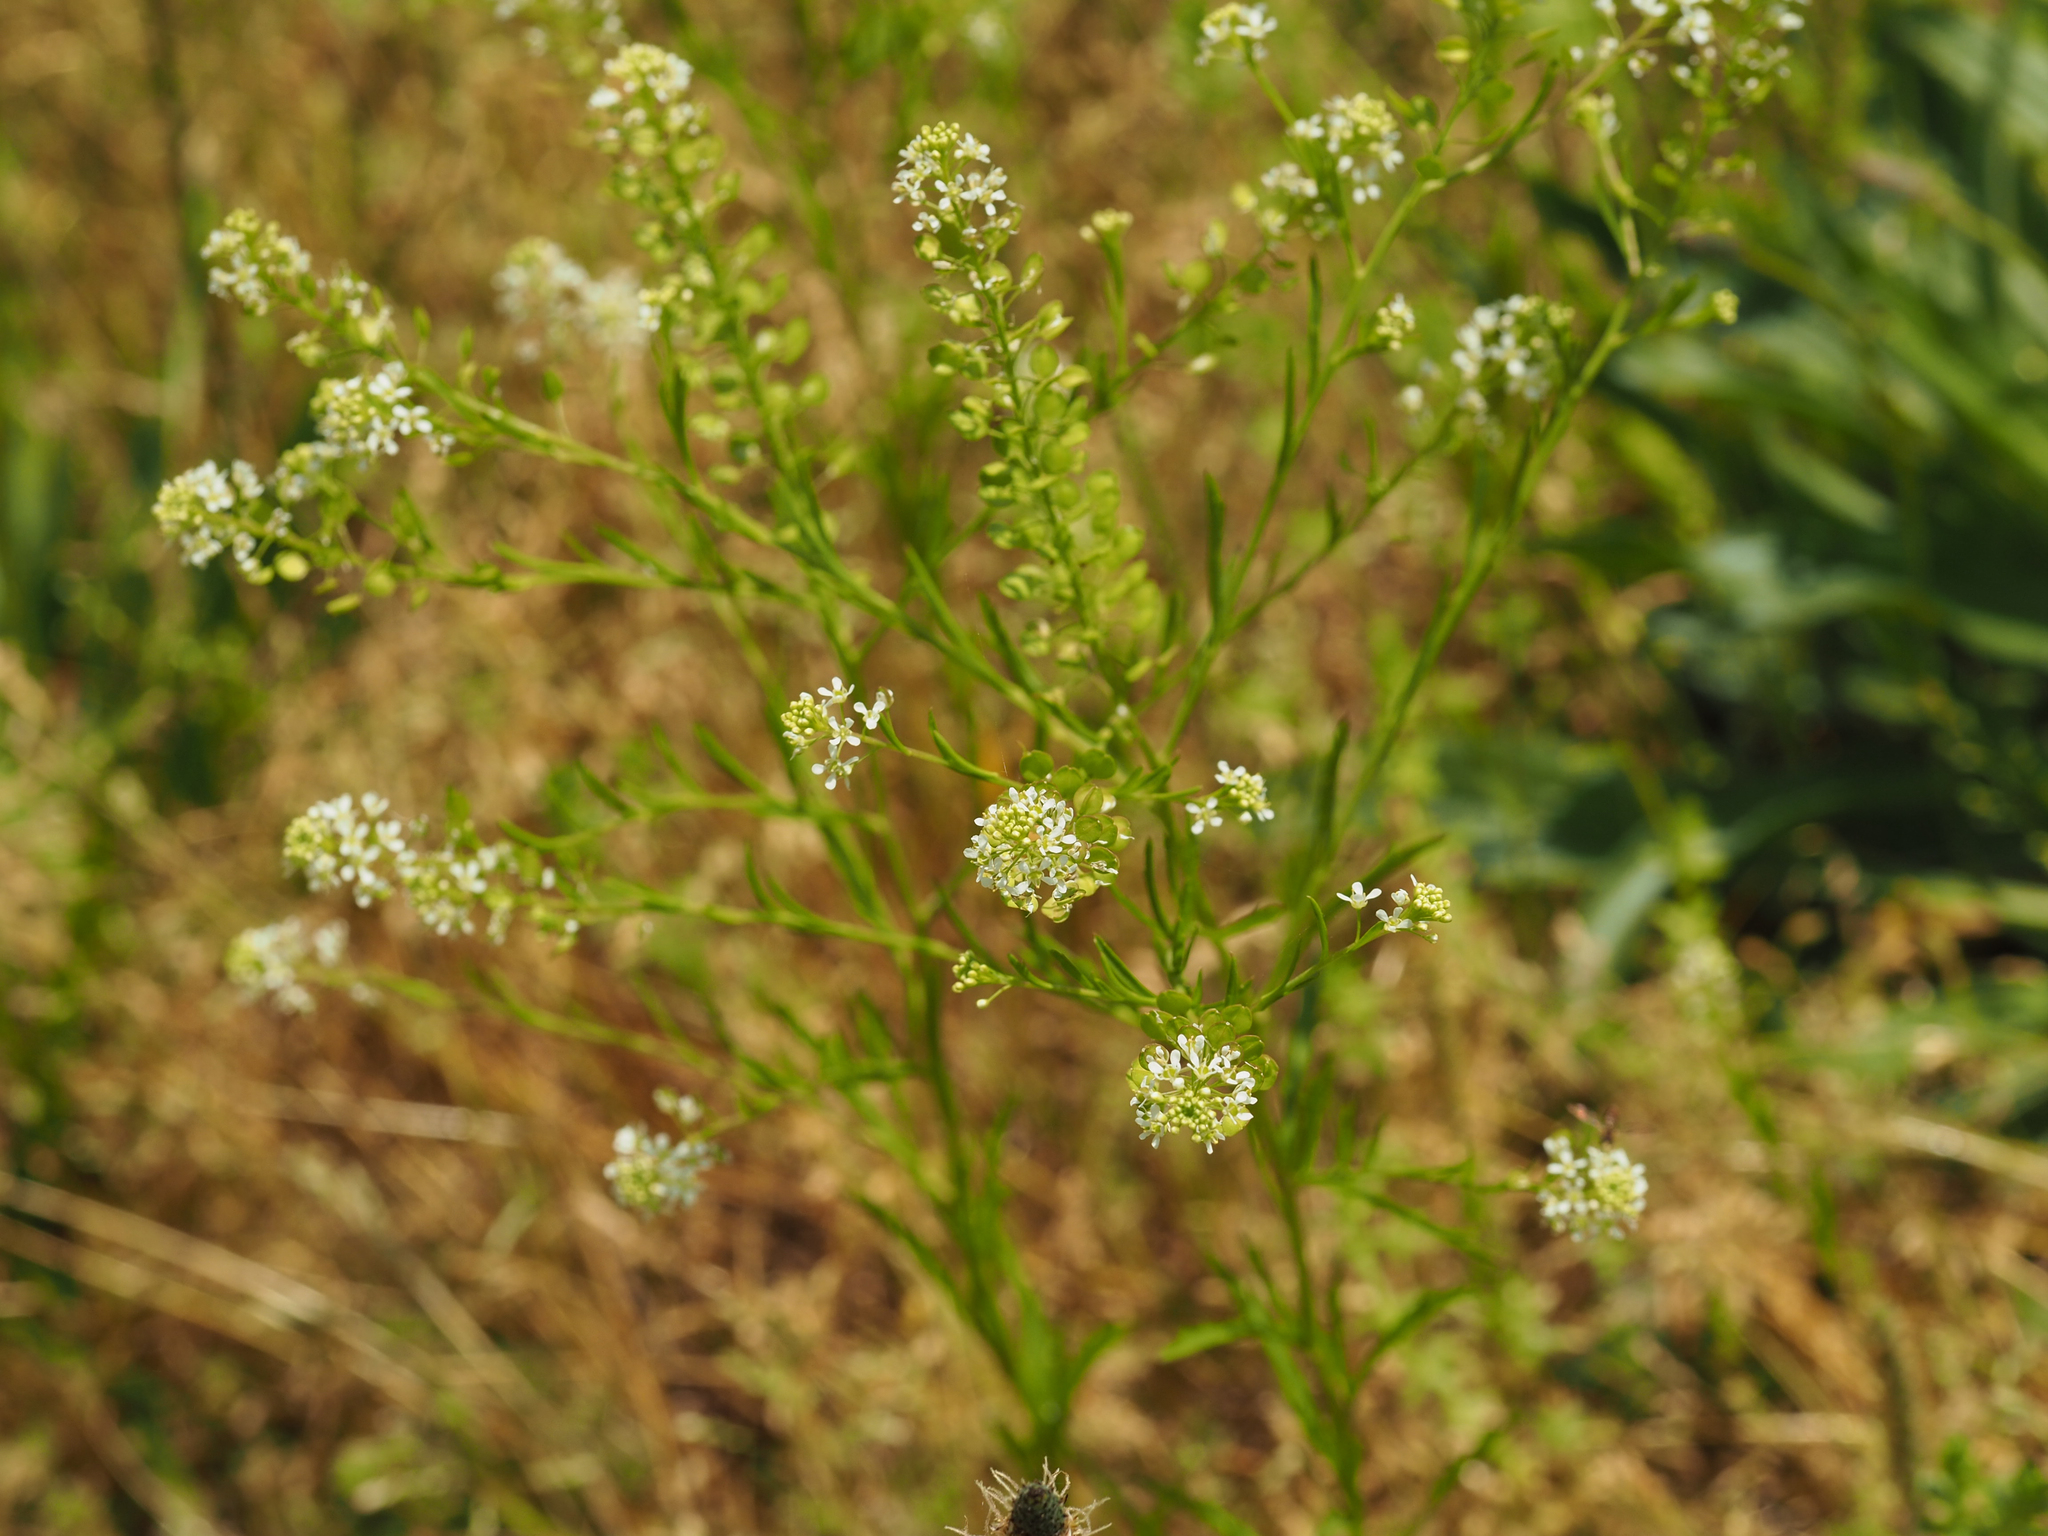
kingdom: Plantae
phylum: Tracheophyta
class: Magnoliopsida
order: Brassicales
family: Brassicaceae
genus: Lepidium
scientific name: Lepidium virginicum
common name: Least pepperwort
